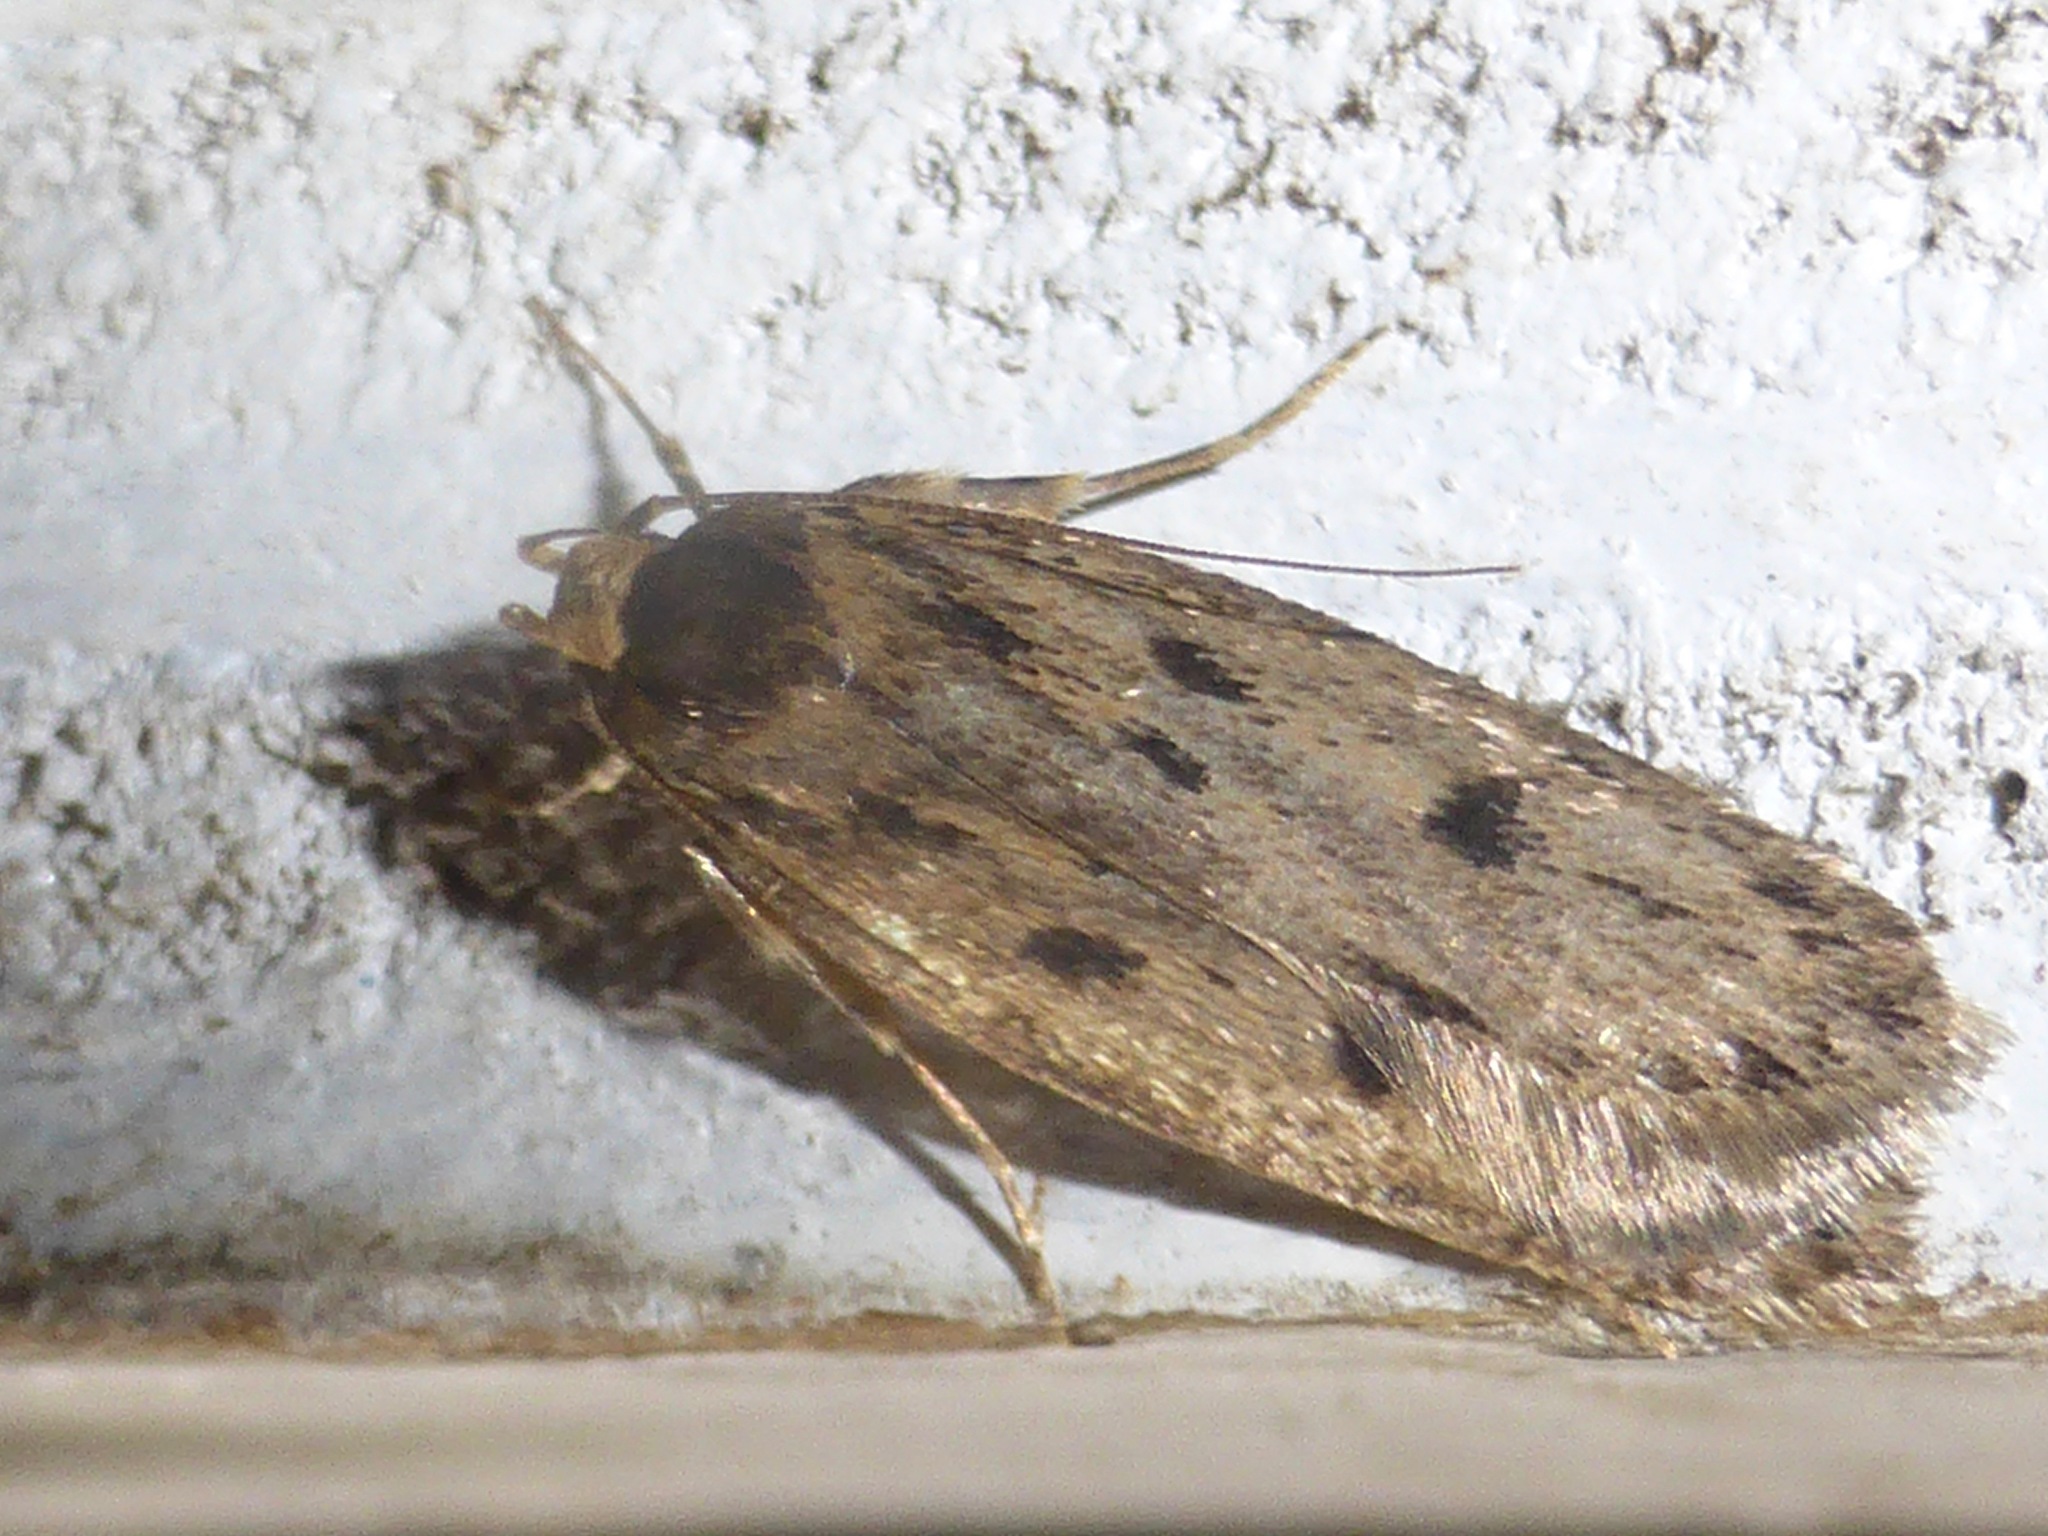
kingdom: Animalia
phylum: Arthropoda
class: Insecta
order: Lepidoptera
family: Oecophoridae
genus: Hofmannophila
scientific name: Hofmannophila pseudospretella
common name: Brown house moth
